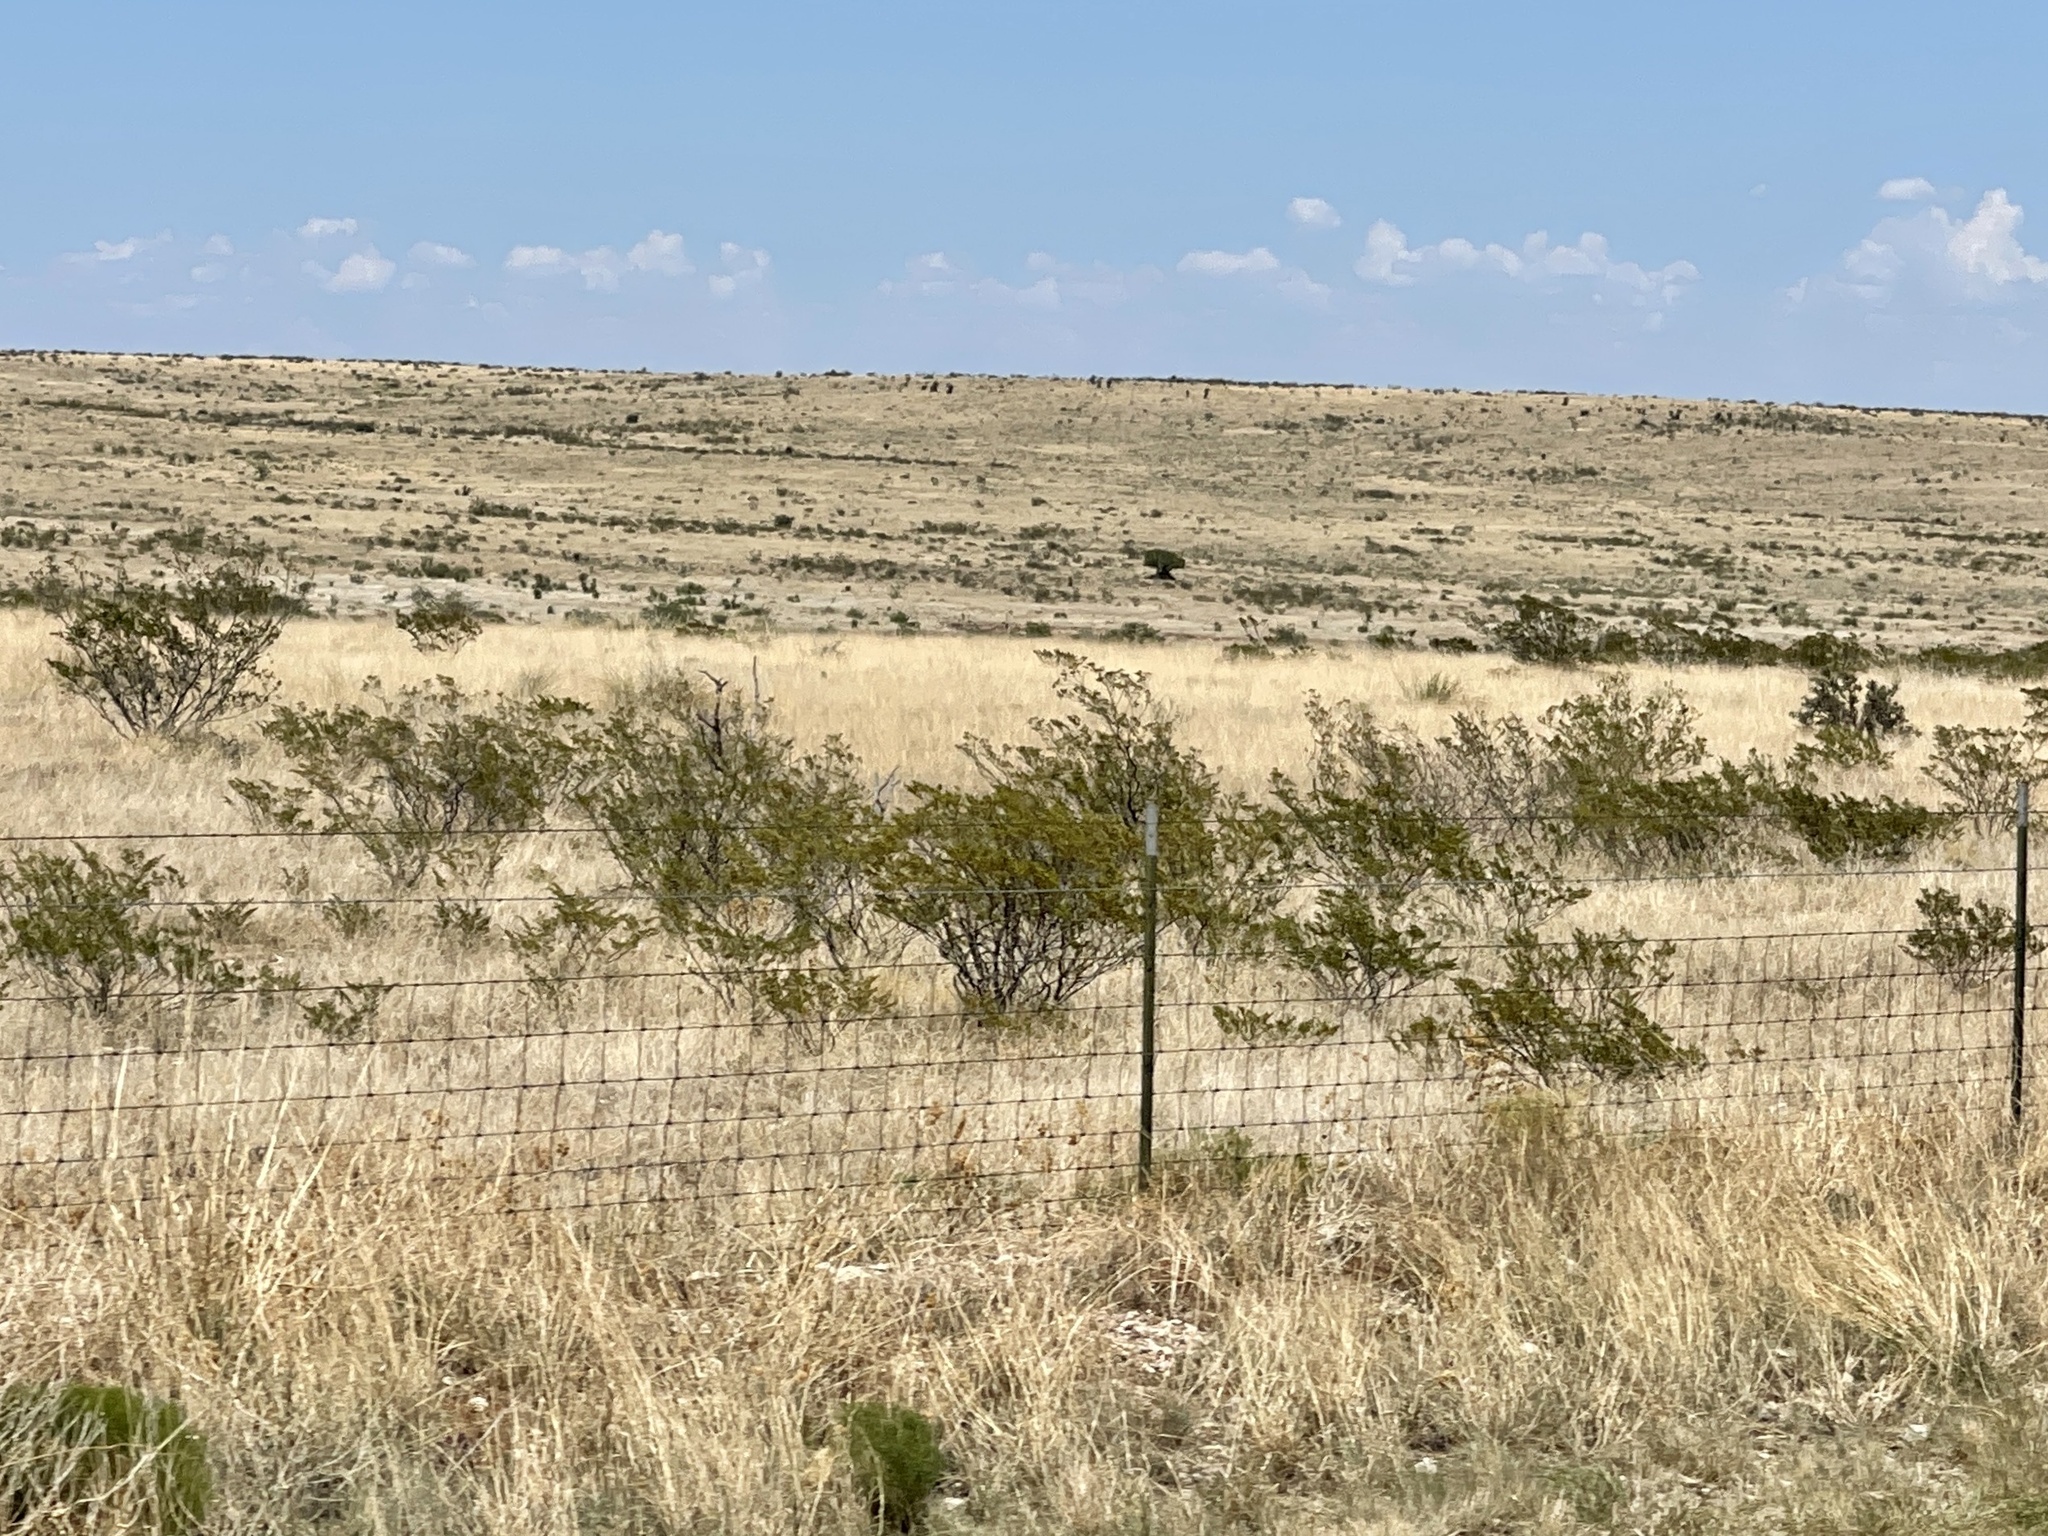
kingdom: Plantae
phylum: Tracheophyta
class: Magnoliopsida
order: Zygophyllales
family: Zygophyllaceae
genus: Larrea
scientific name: Larrea tridentata
